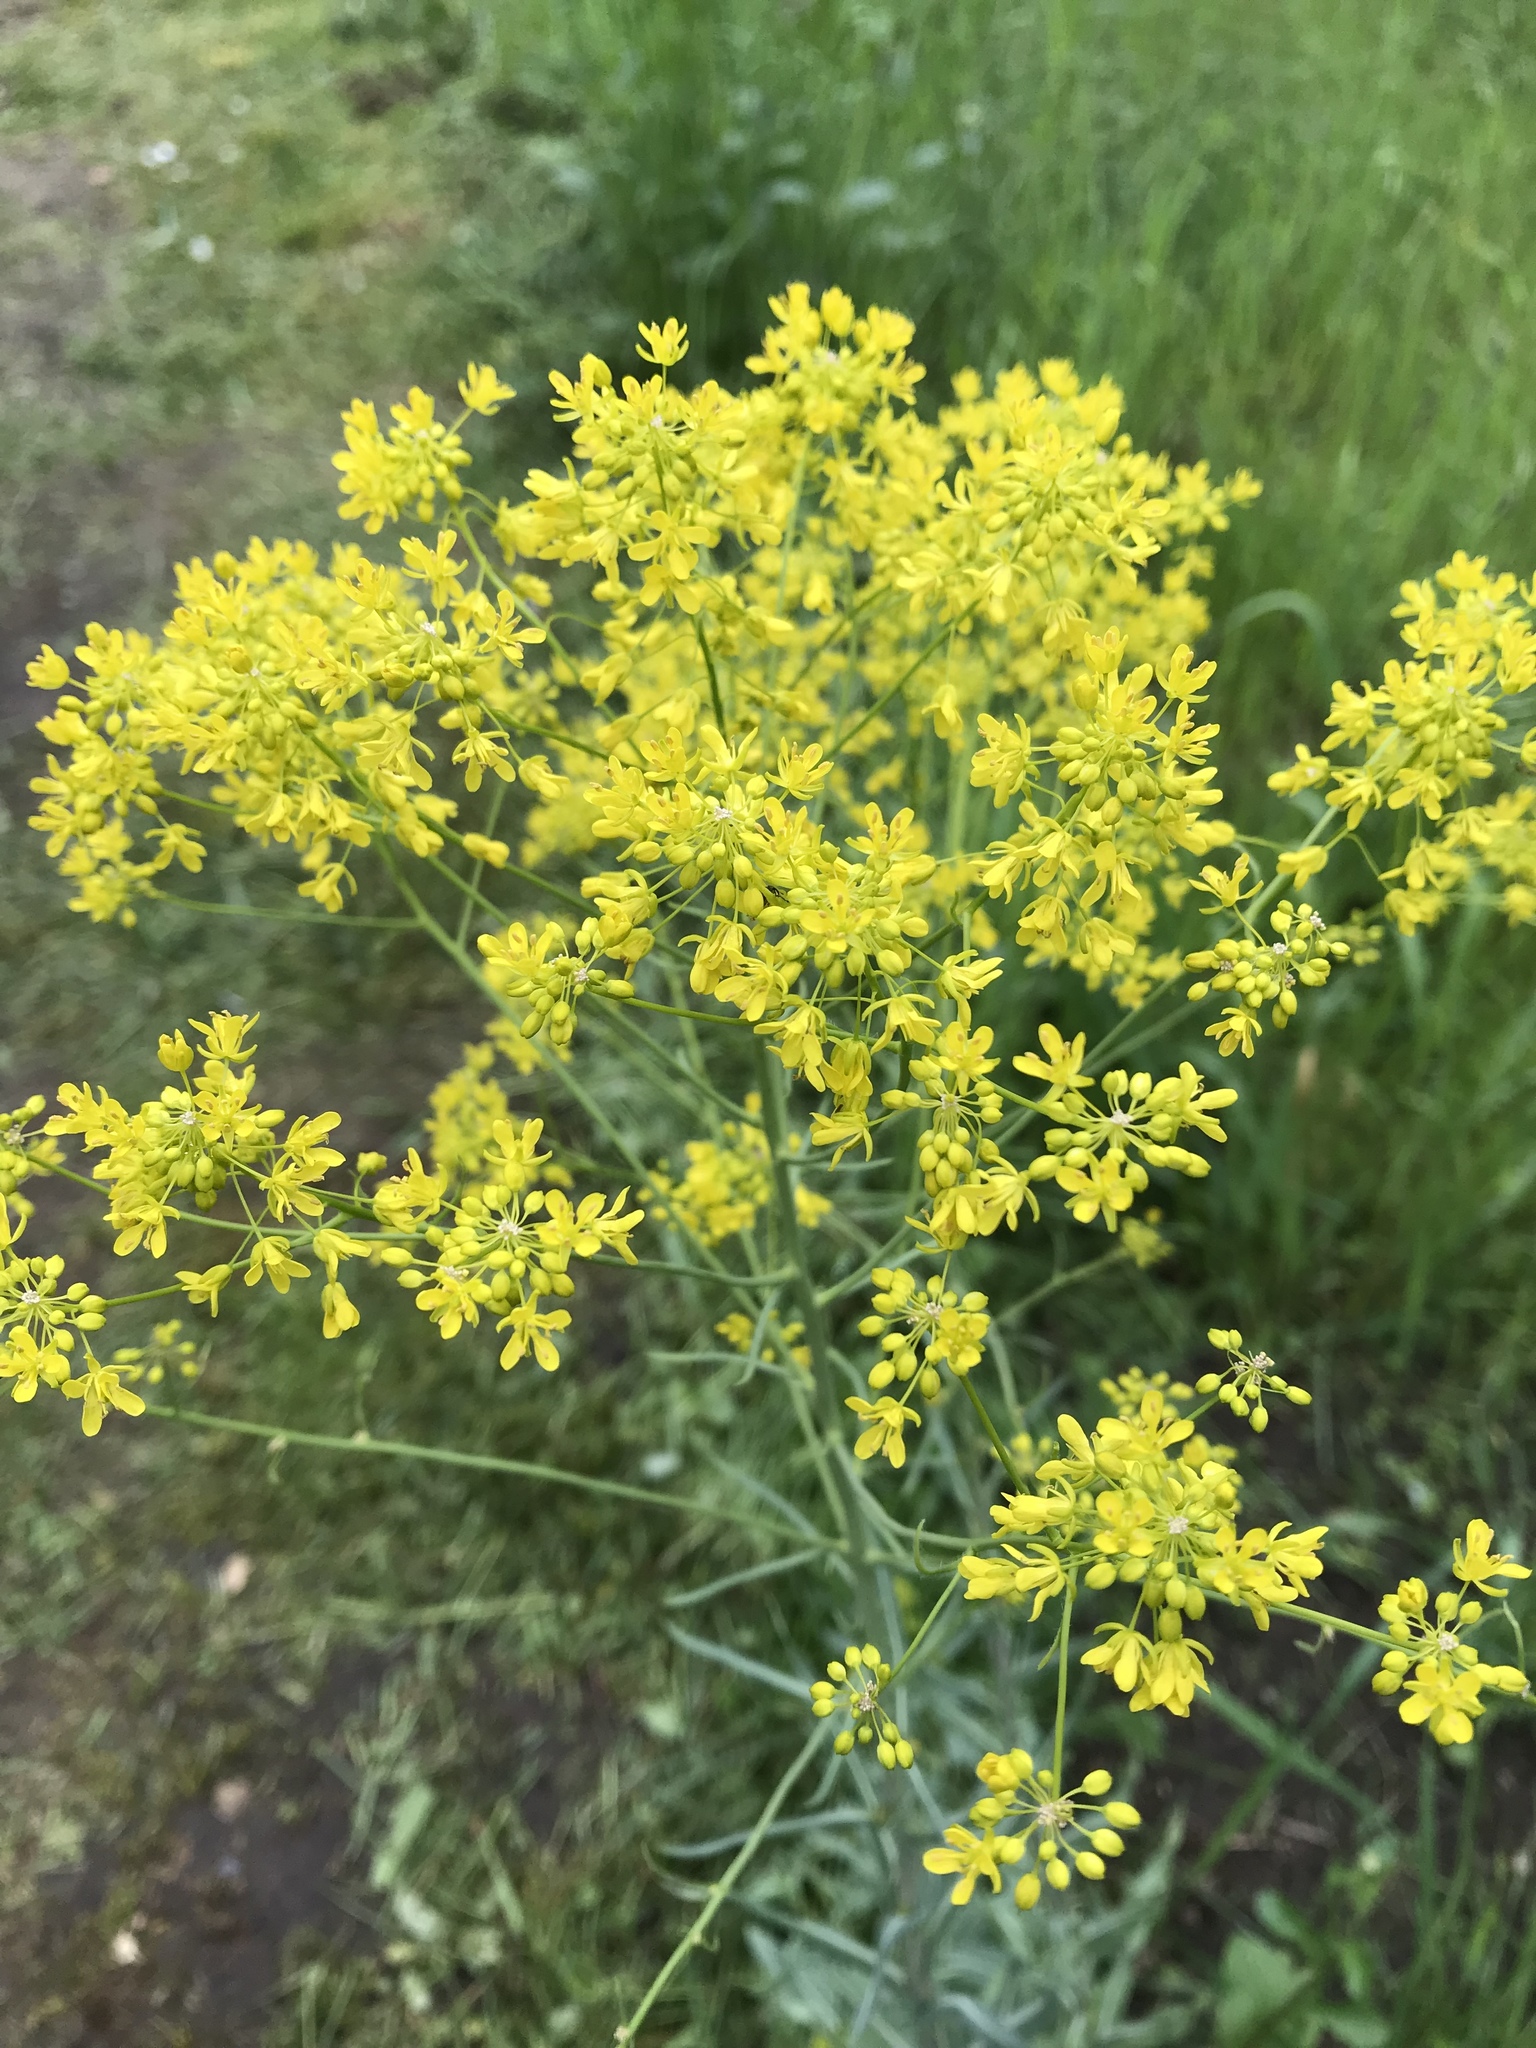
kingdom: Plantae
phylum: Tracheophyta
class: Magnoliopsida
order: Brassicales
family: Brassicaceae
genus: Isatis
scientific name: Isatis tinctoria
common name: Woad
